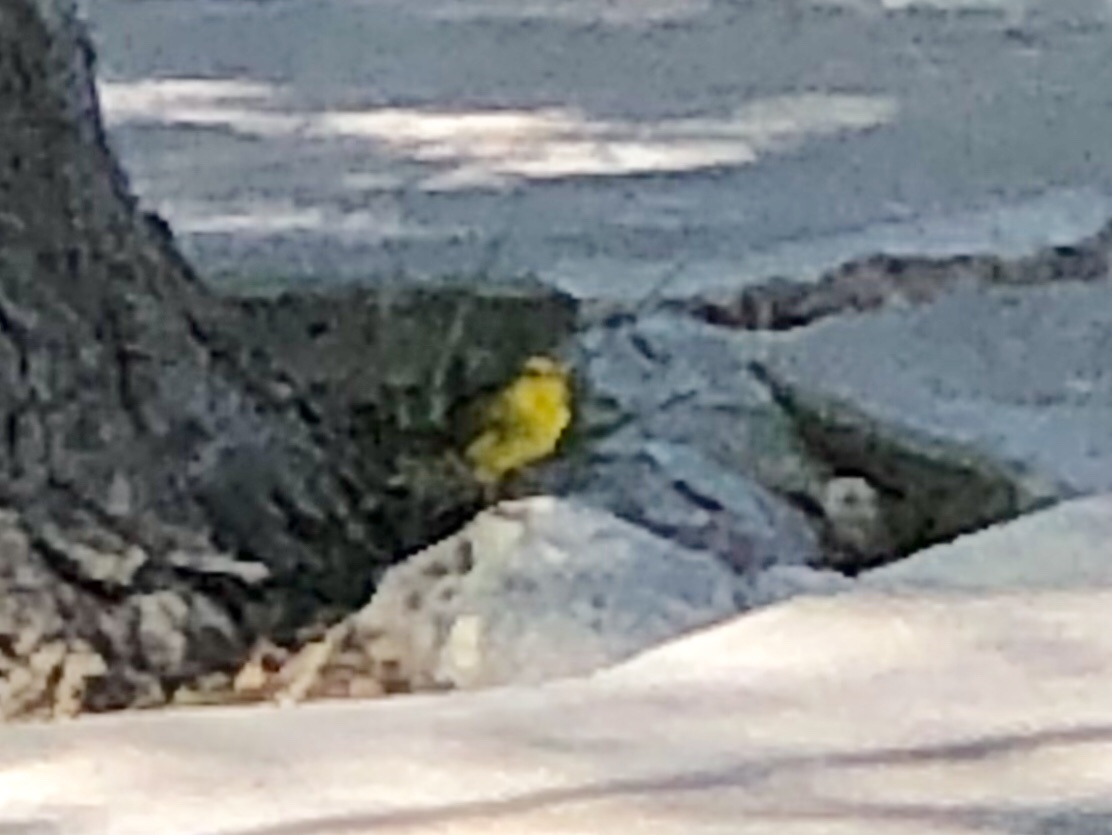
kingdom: Animalia
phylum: Chordata
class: Aves
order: Passeriformes
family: Parulidae
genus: Cardellina
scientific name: Cardellina pusilla
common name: Wilson's warbler
